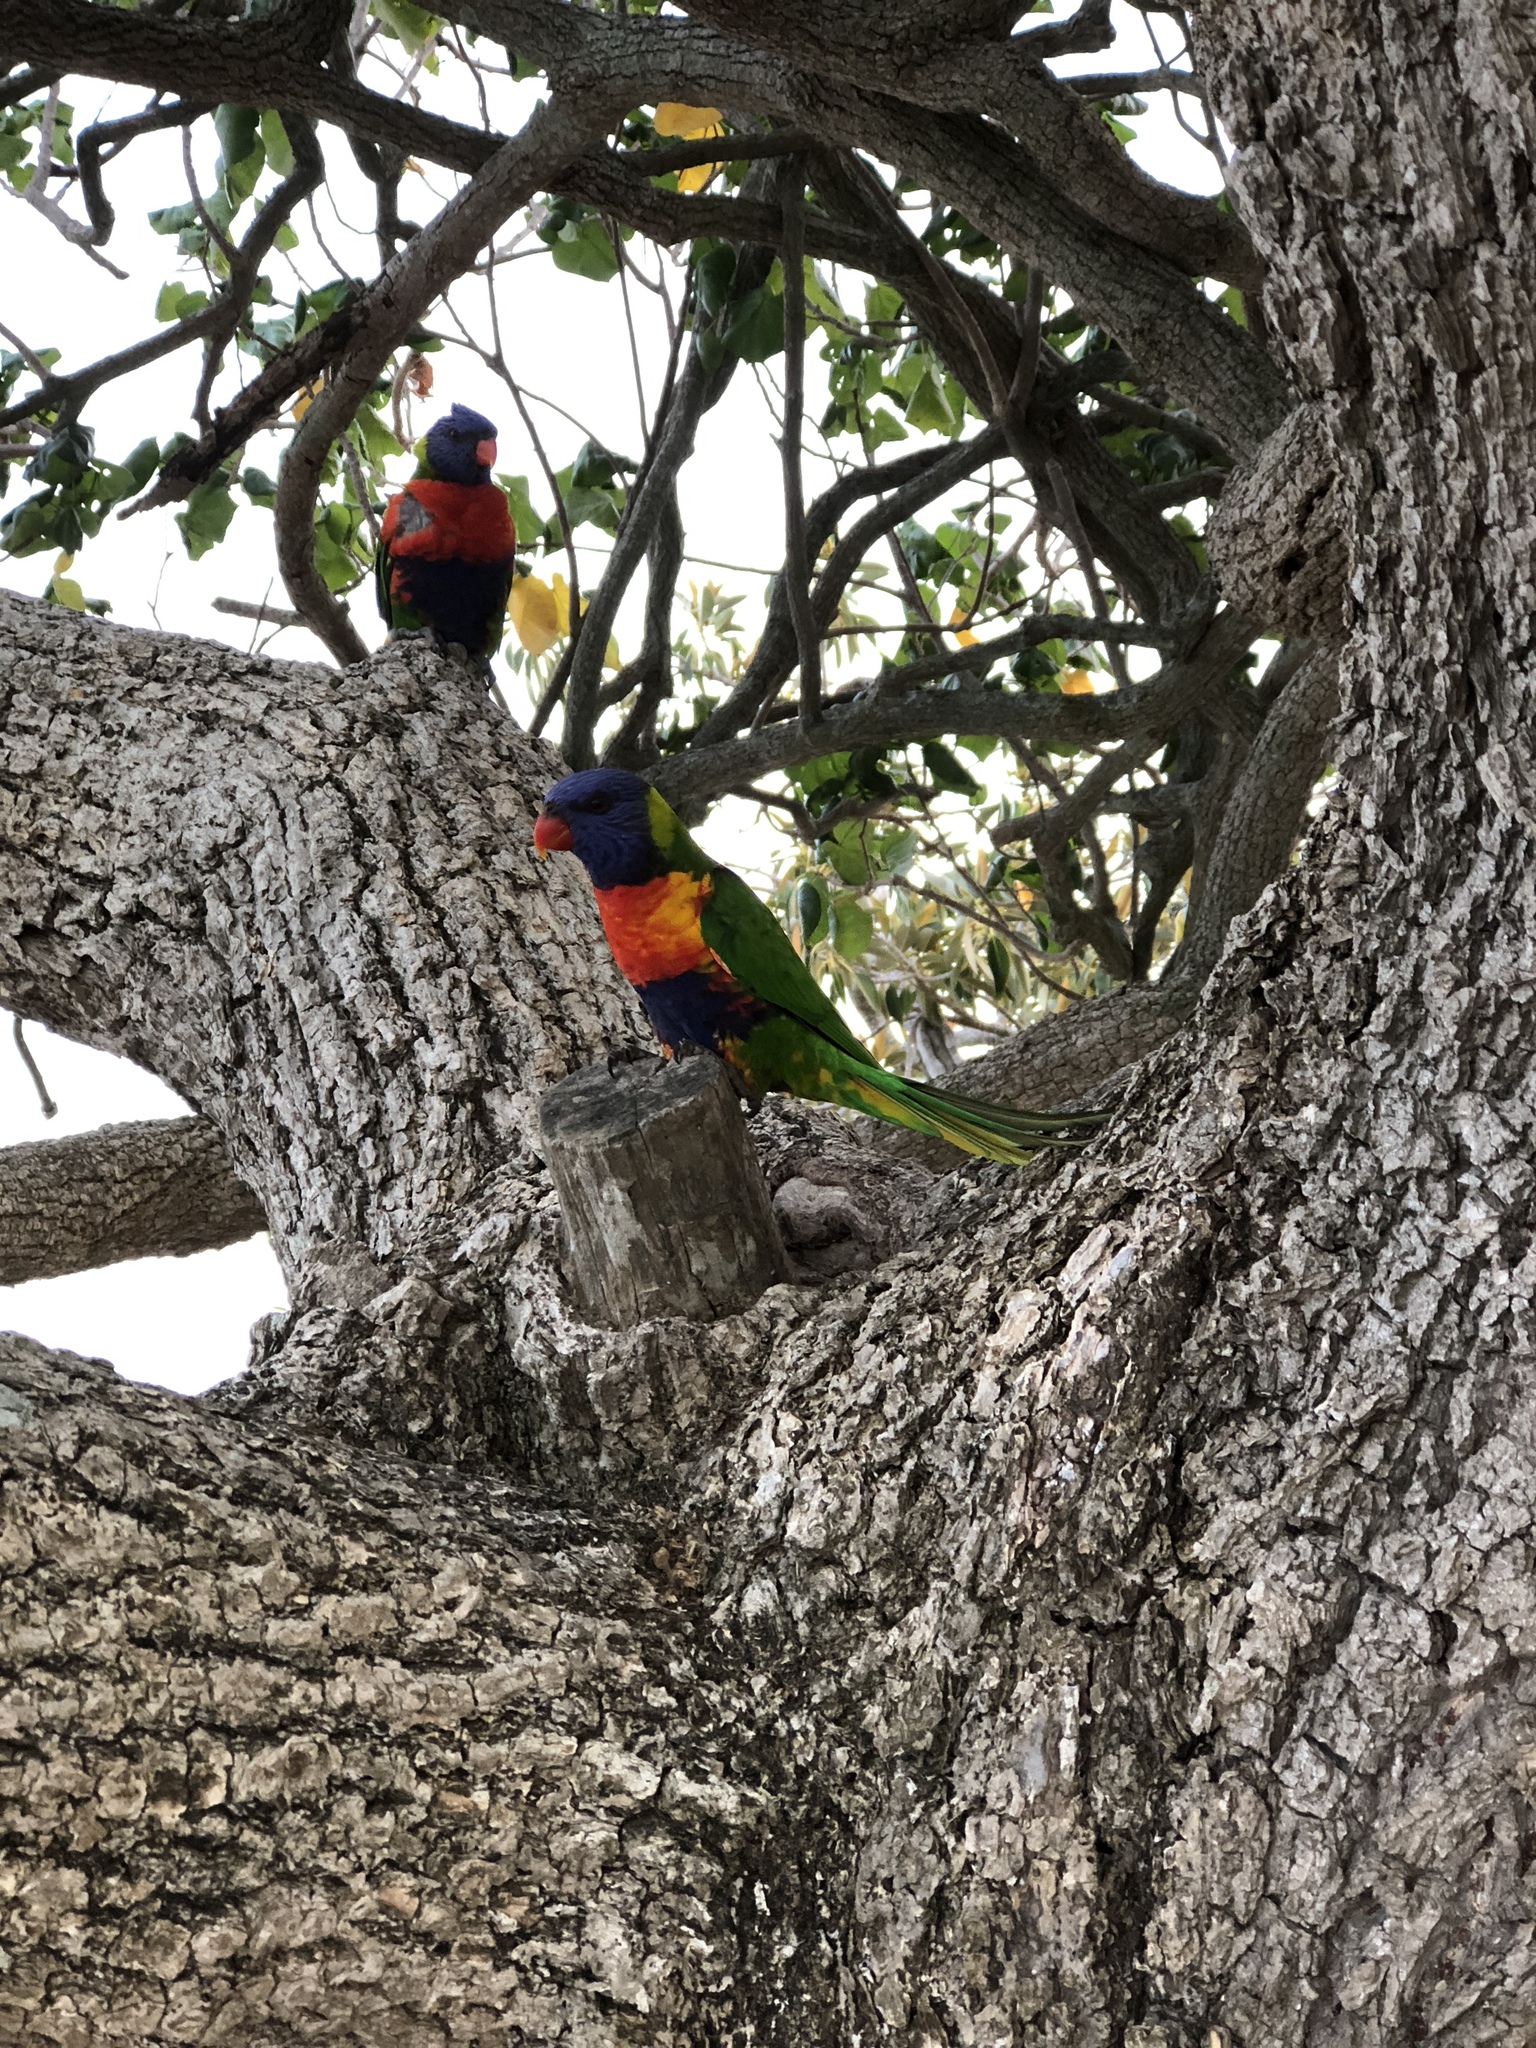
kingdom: Animalia
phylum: Chordata
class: Aves
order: Psittaciformes
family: Psittacidae
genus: Trichoglossus
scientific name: Trichoglossus haematodus
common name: Coconut lorikeet
